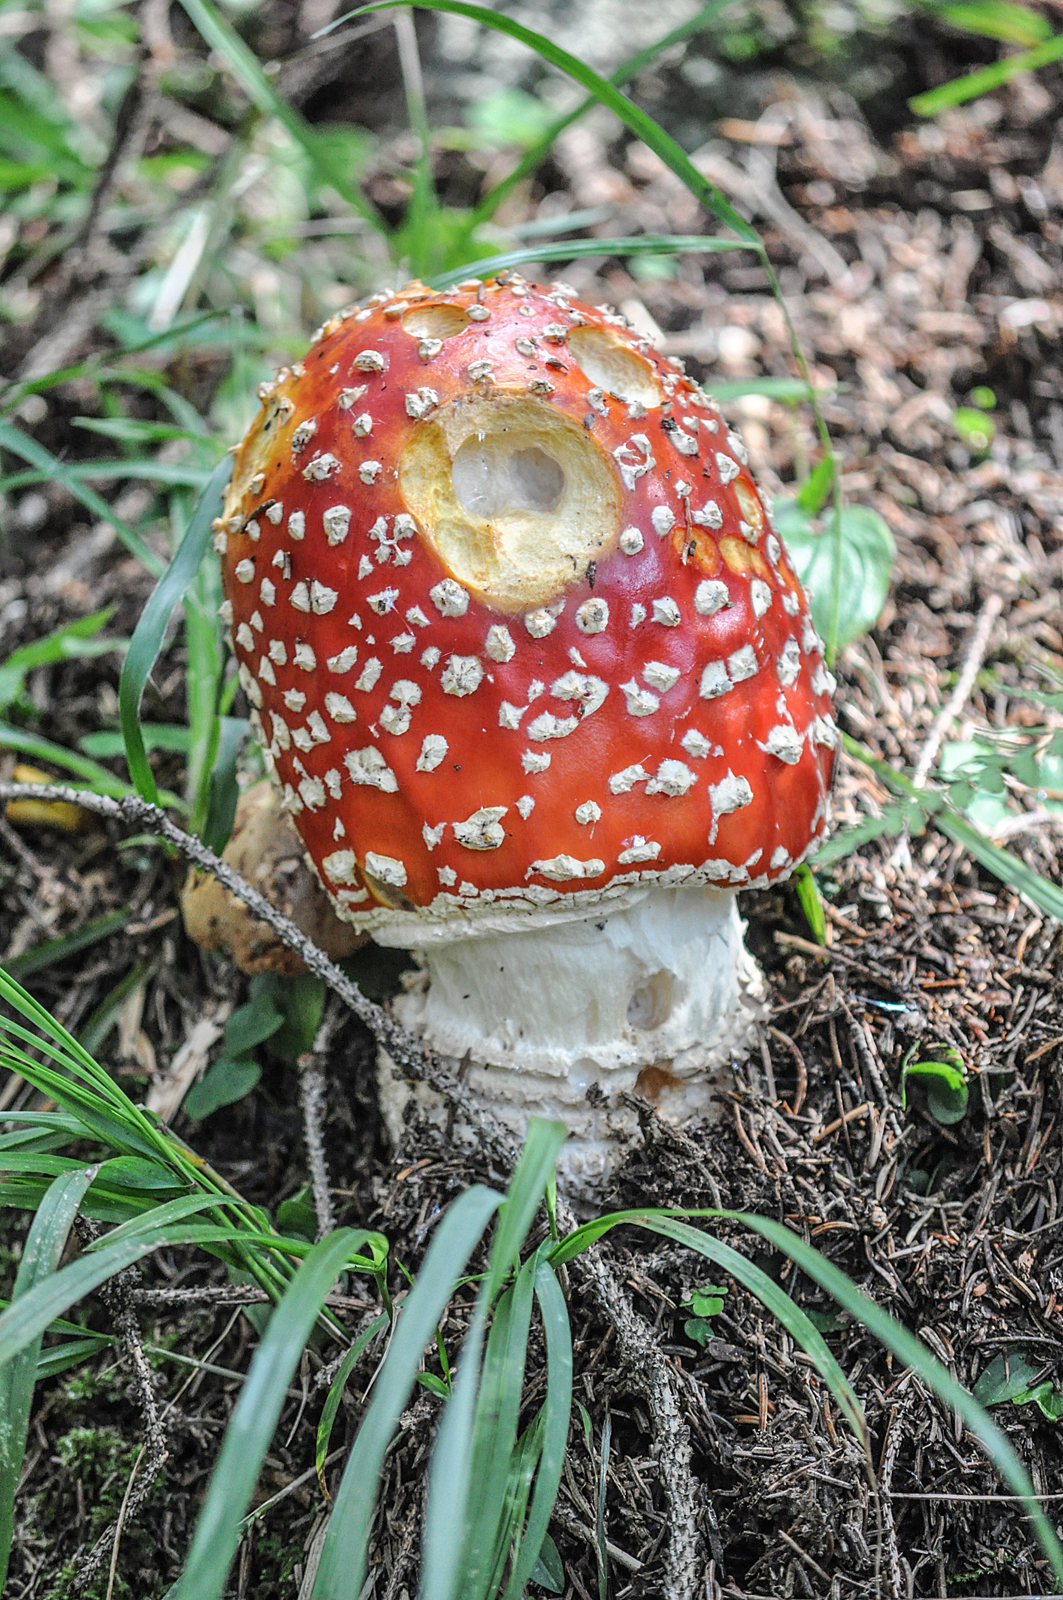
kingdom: Fungi
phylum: Basidiomycota
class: Agaricomycetes
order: Agaricales
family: Amanitaceae
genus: Amanita
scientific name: Amanita muscaria
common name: Fly agaric
